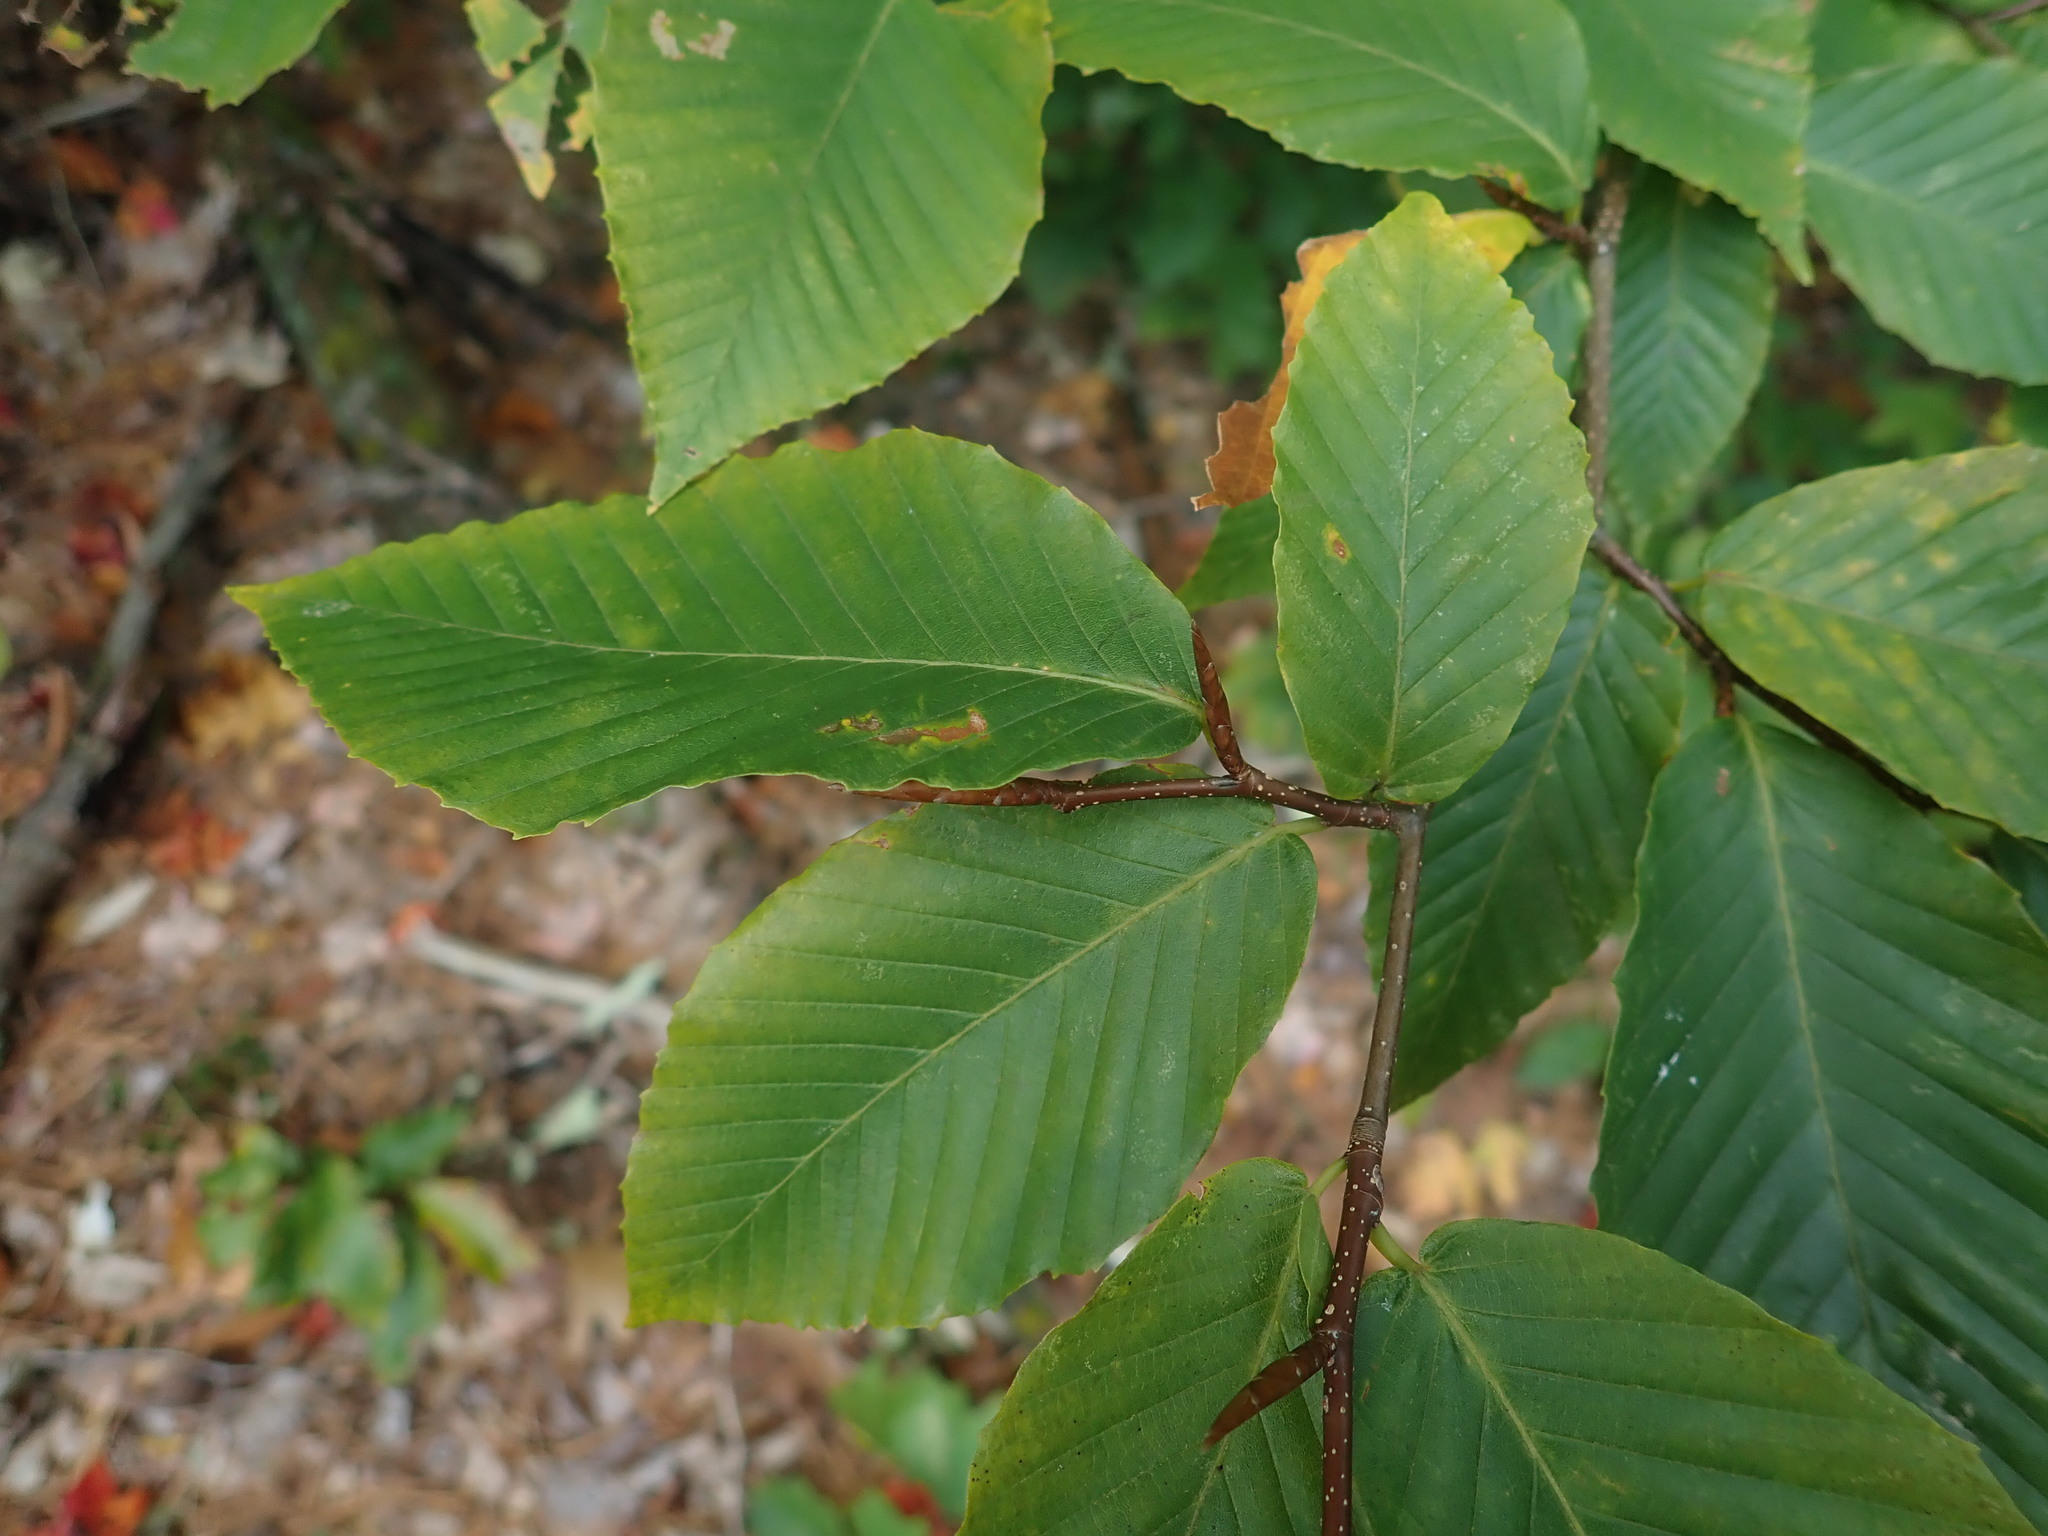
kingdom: Plantae
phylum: Tracheophyta
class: Magnoliopsida
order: Fagales
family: Fagaceae
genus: Fagus
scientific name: Fagus grandifolia
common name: American beech
